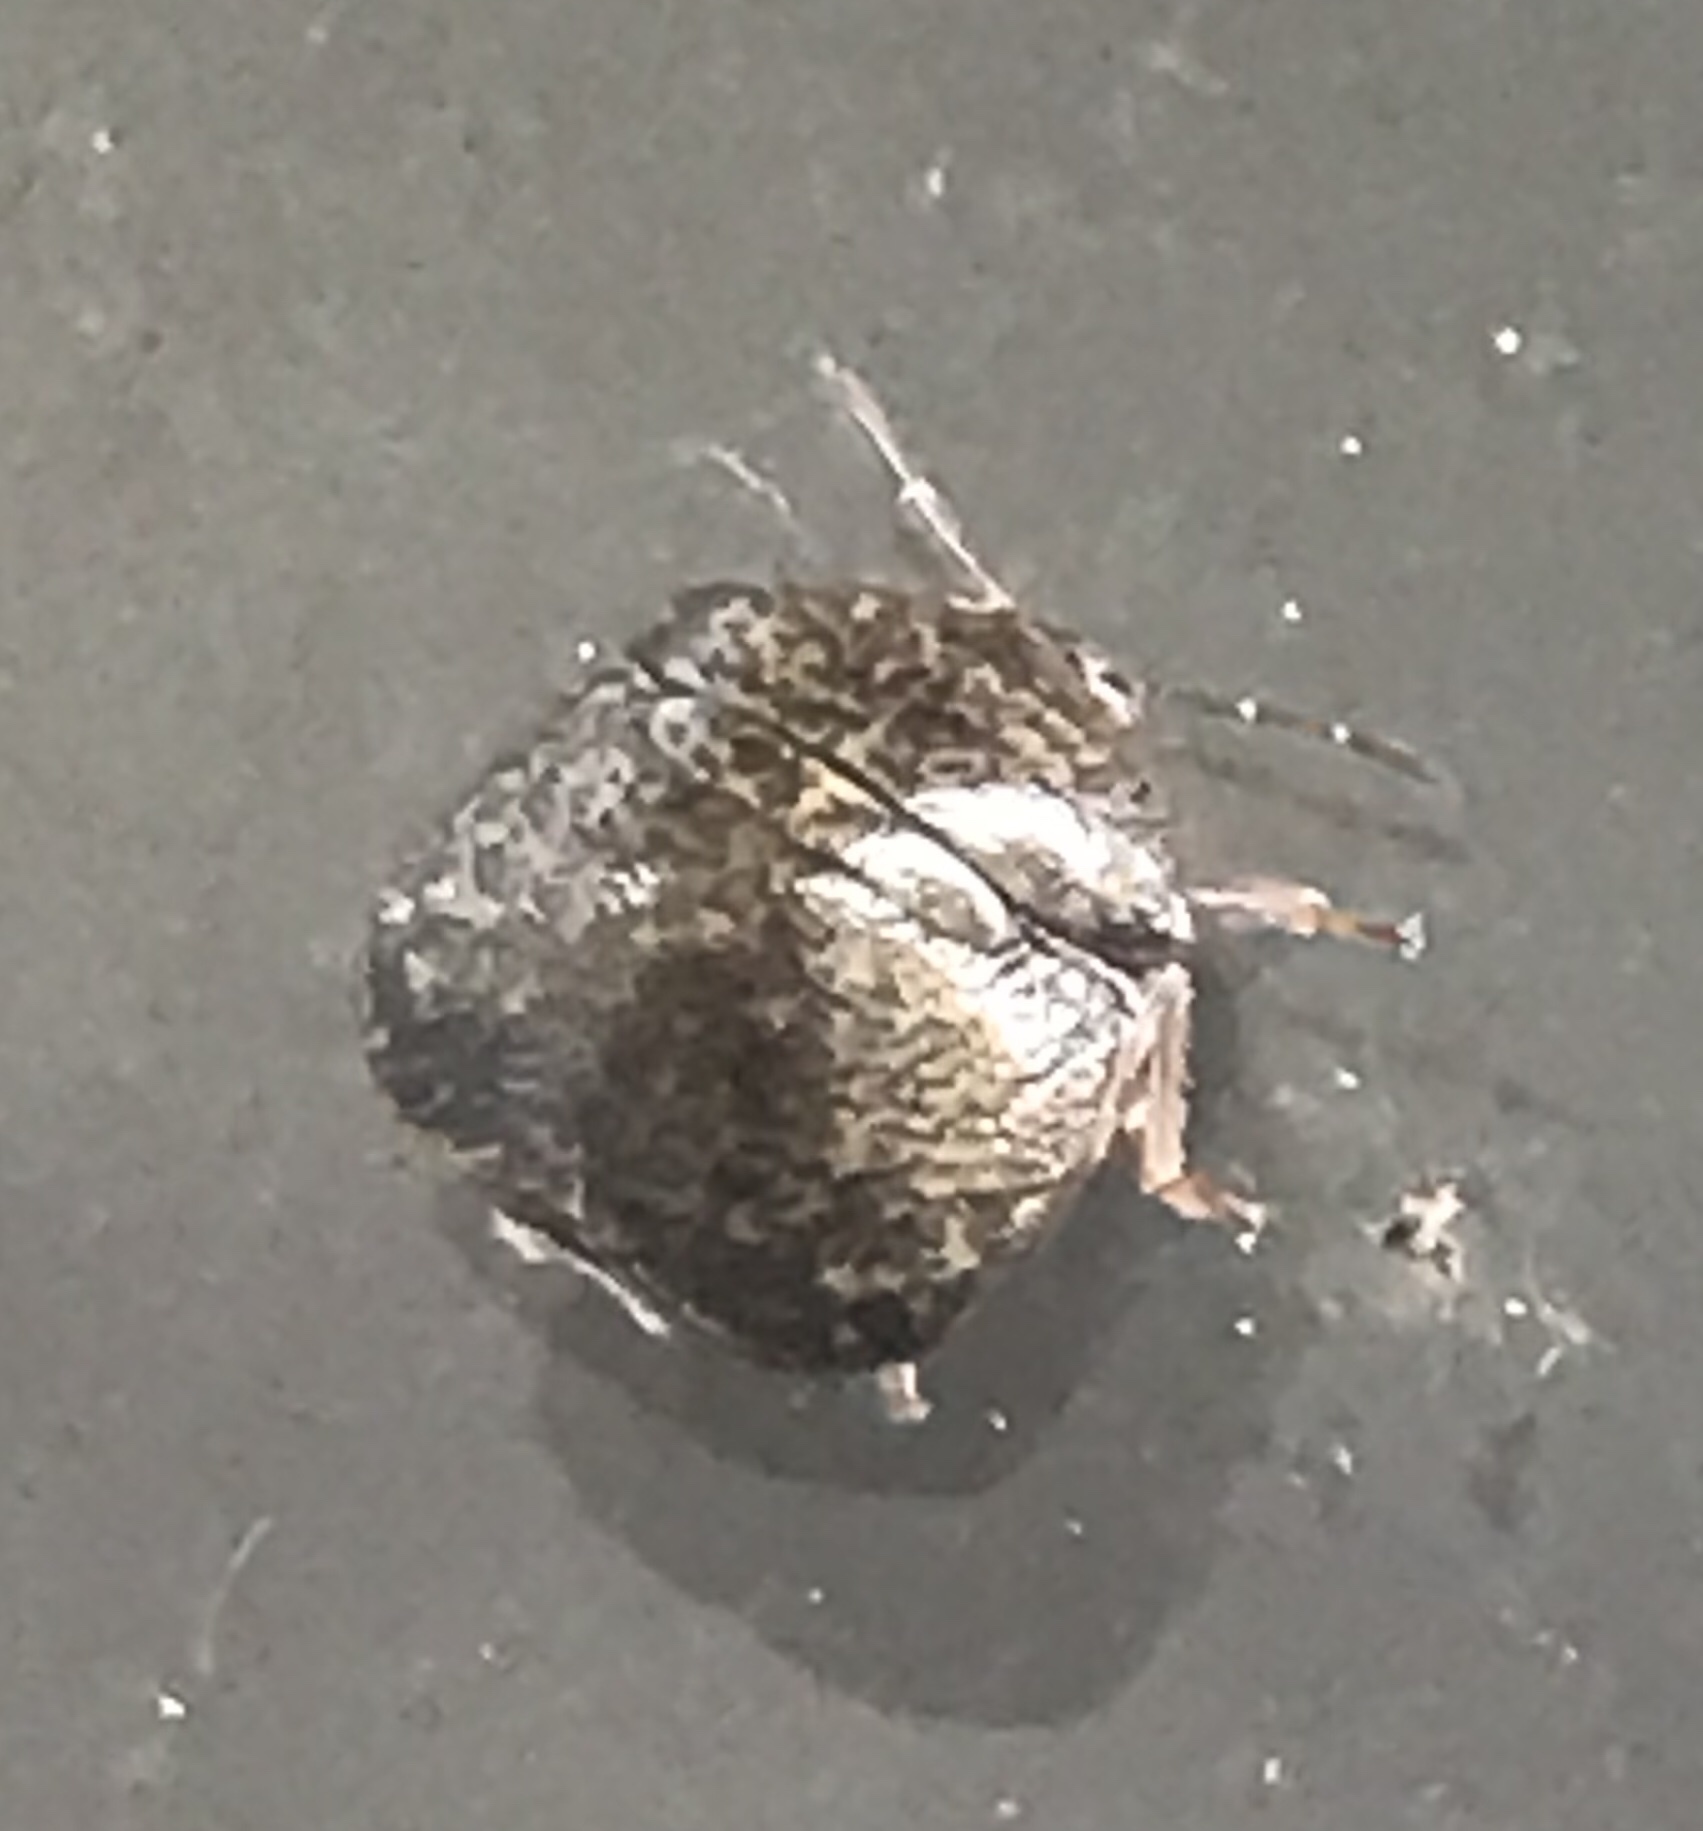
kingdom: Animalia
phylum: Arthropoda
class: Insecta
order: Hemiptera
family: Plataspidae
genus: Megacopta
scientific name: Megacopta cribraria
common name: Bean plataspid
